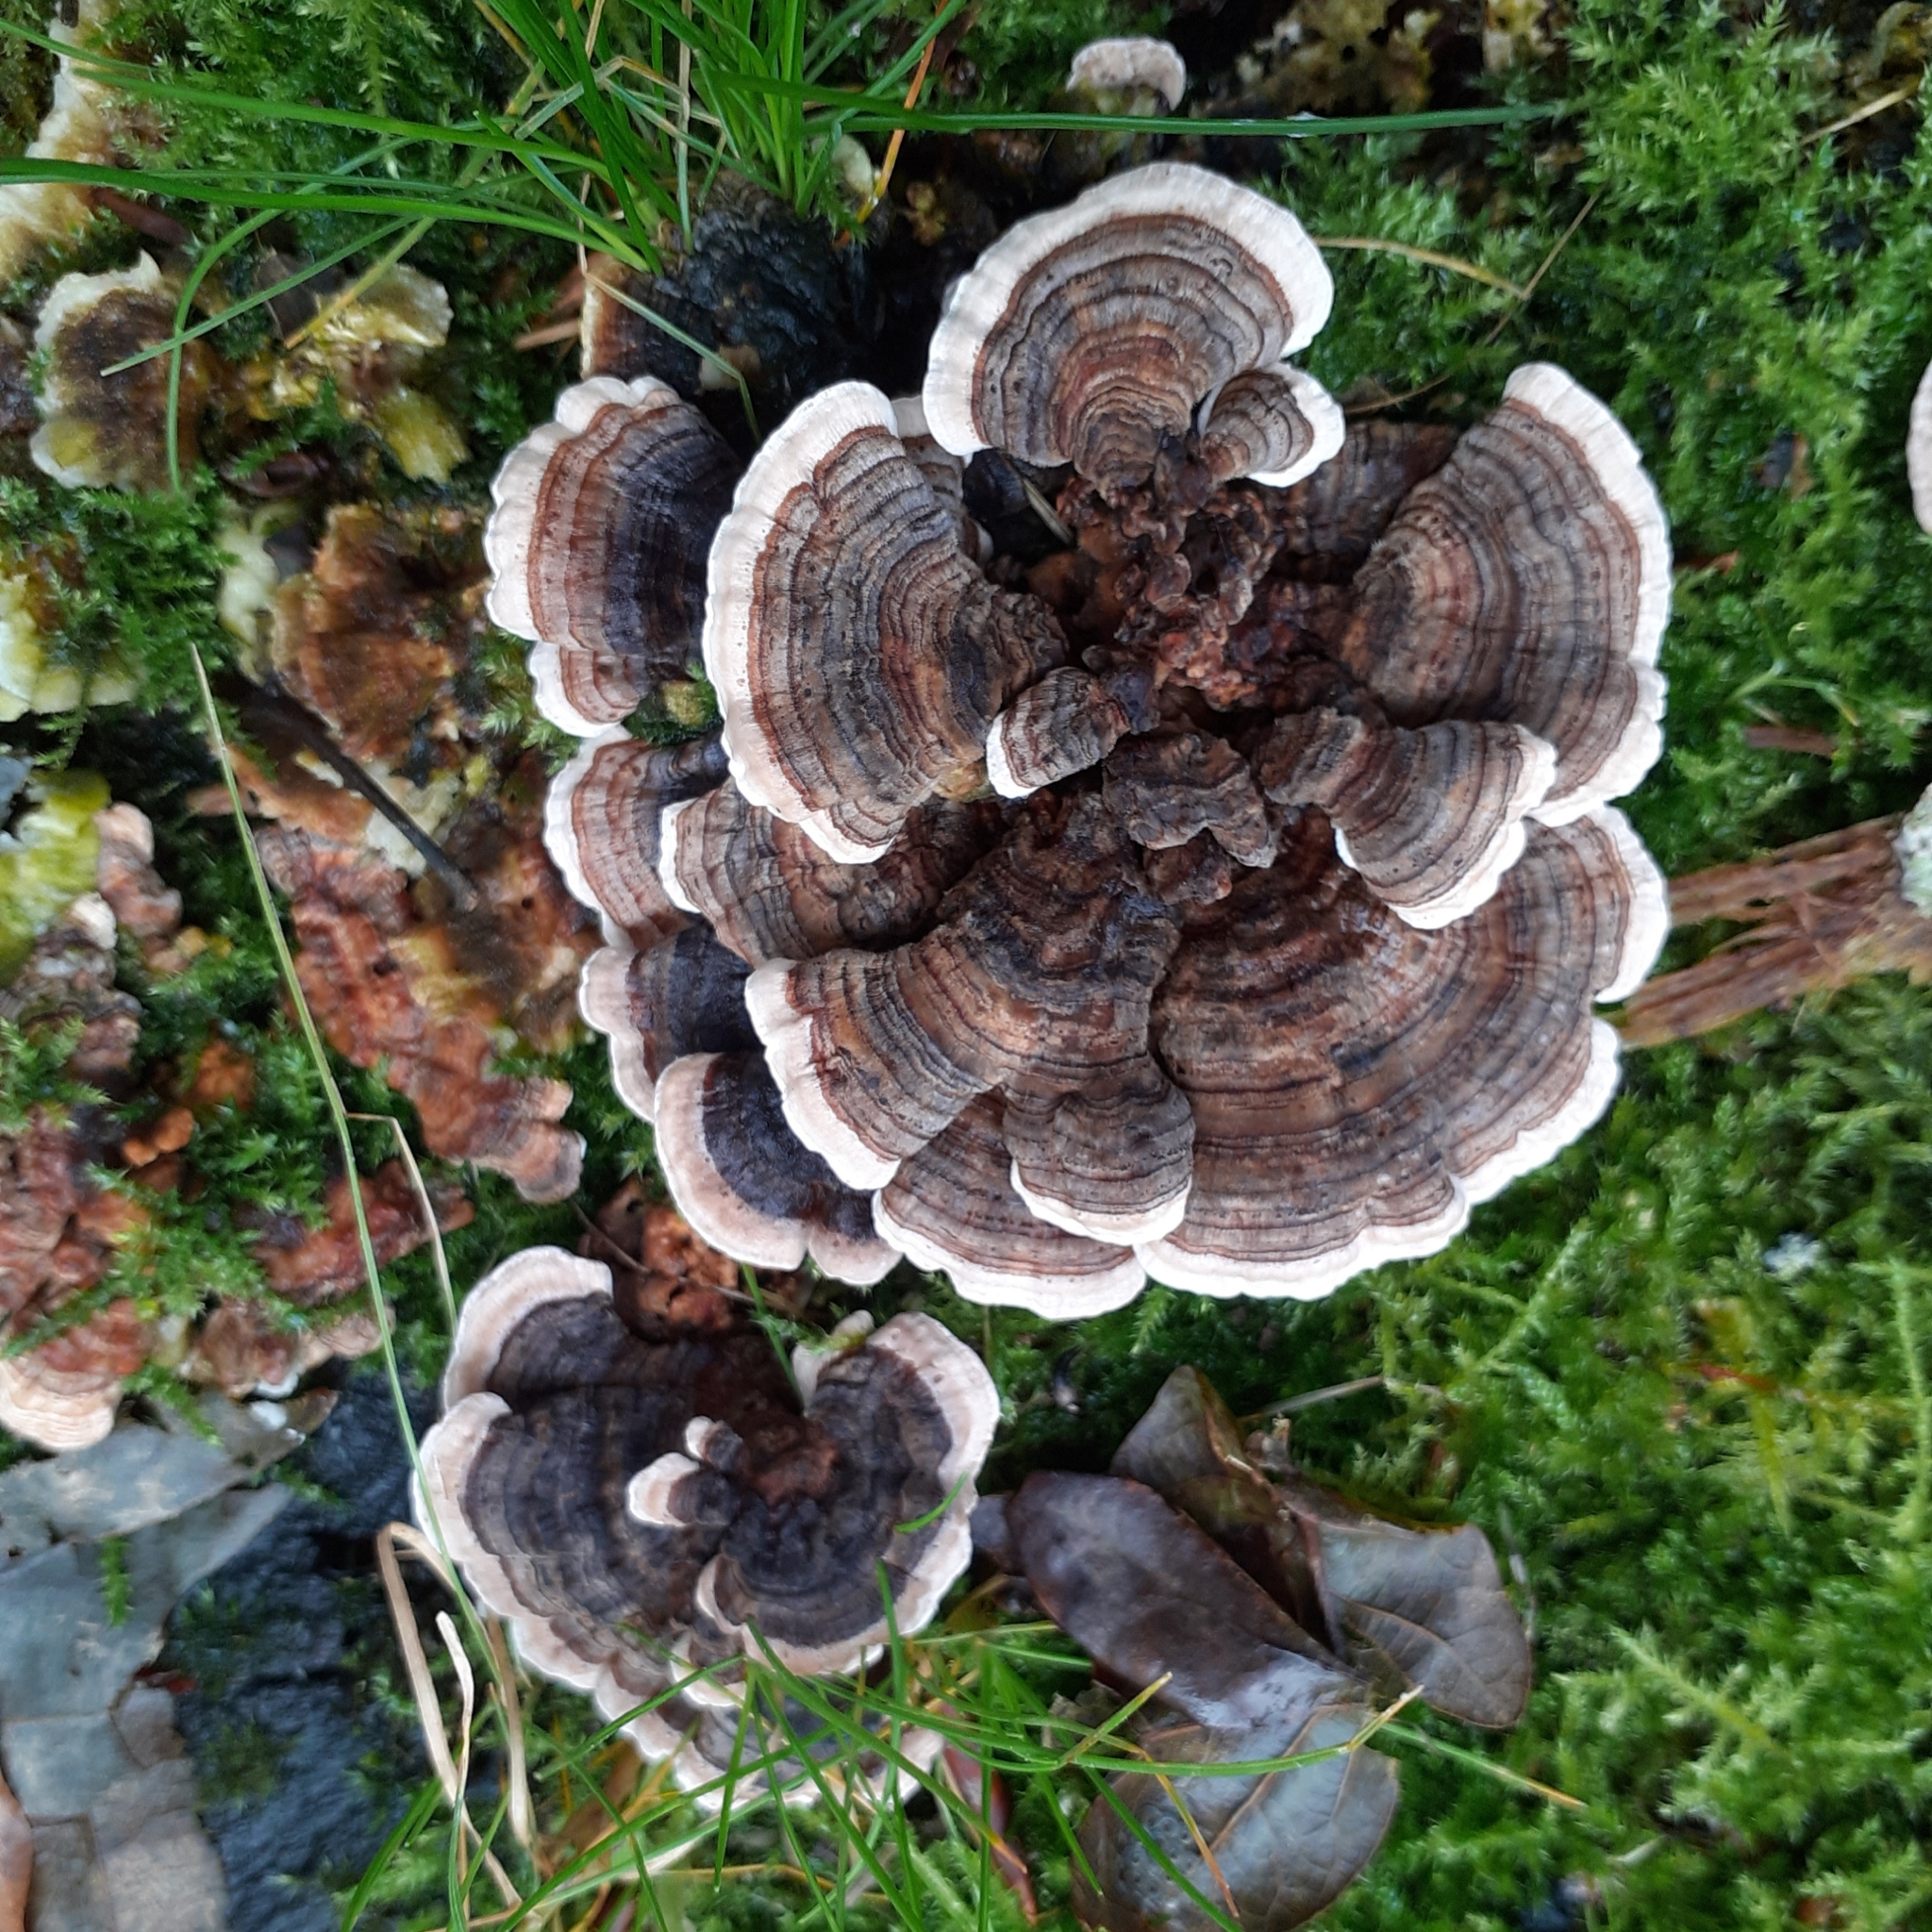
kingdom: Fungi
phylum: Basidiomycota
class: Agaricomycetes
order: Polyporales
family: Polyporaceae
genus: Trametes
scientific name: Trametes versicolor
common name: Turkeytail
